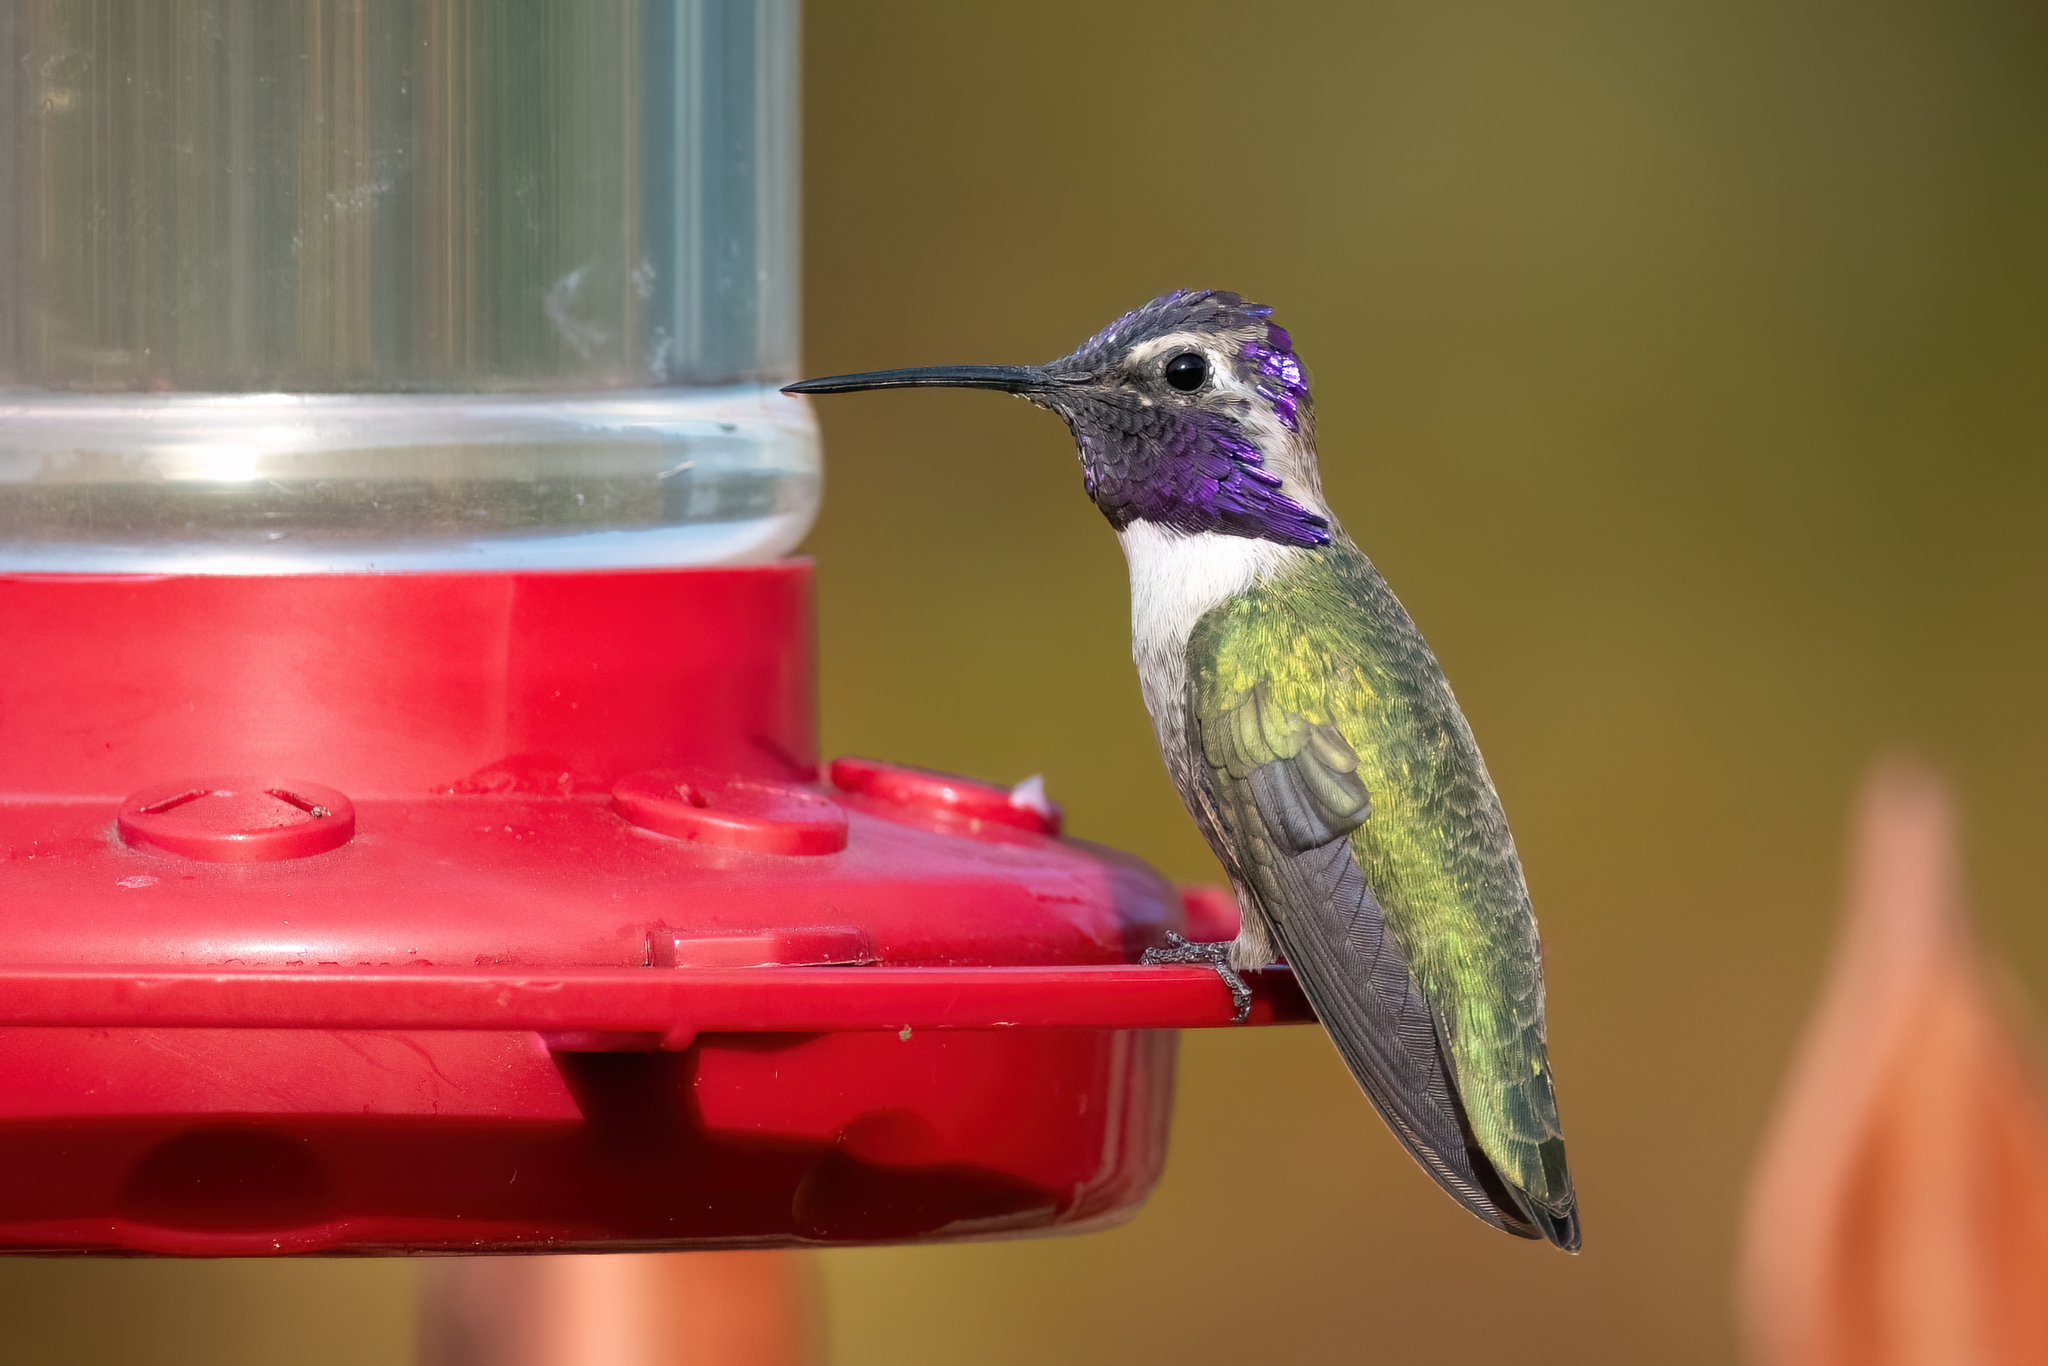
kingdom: Animalia
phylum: Chordata
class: Aves
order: Apodiformes
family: Trochilidae
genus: Calypte
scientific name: Calypte costae
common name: Costa's hummingbird
